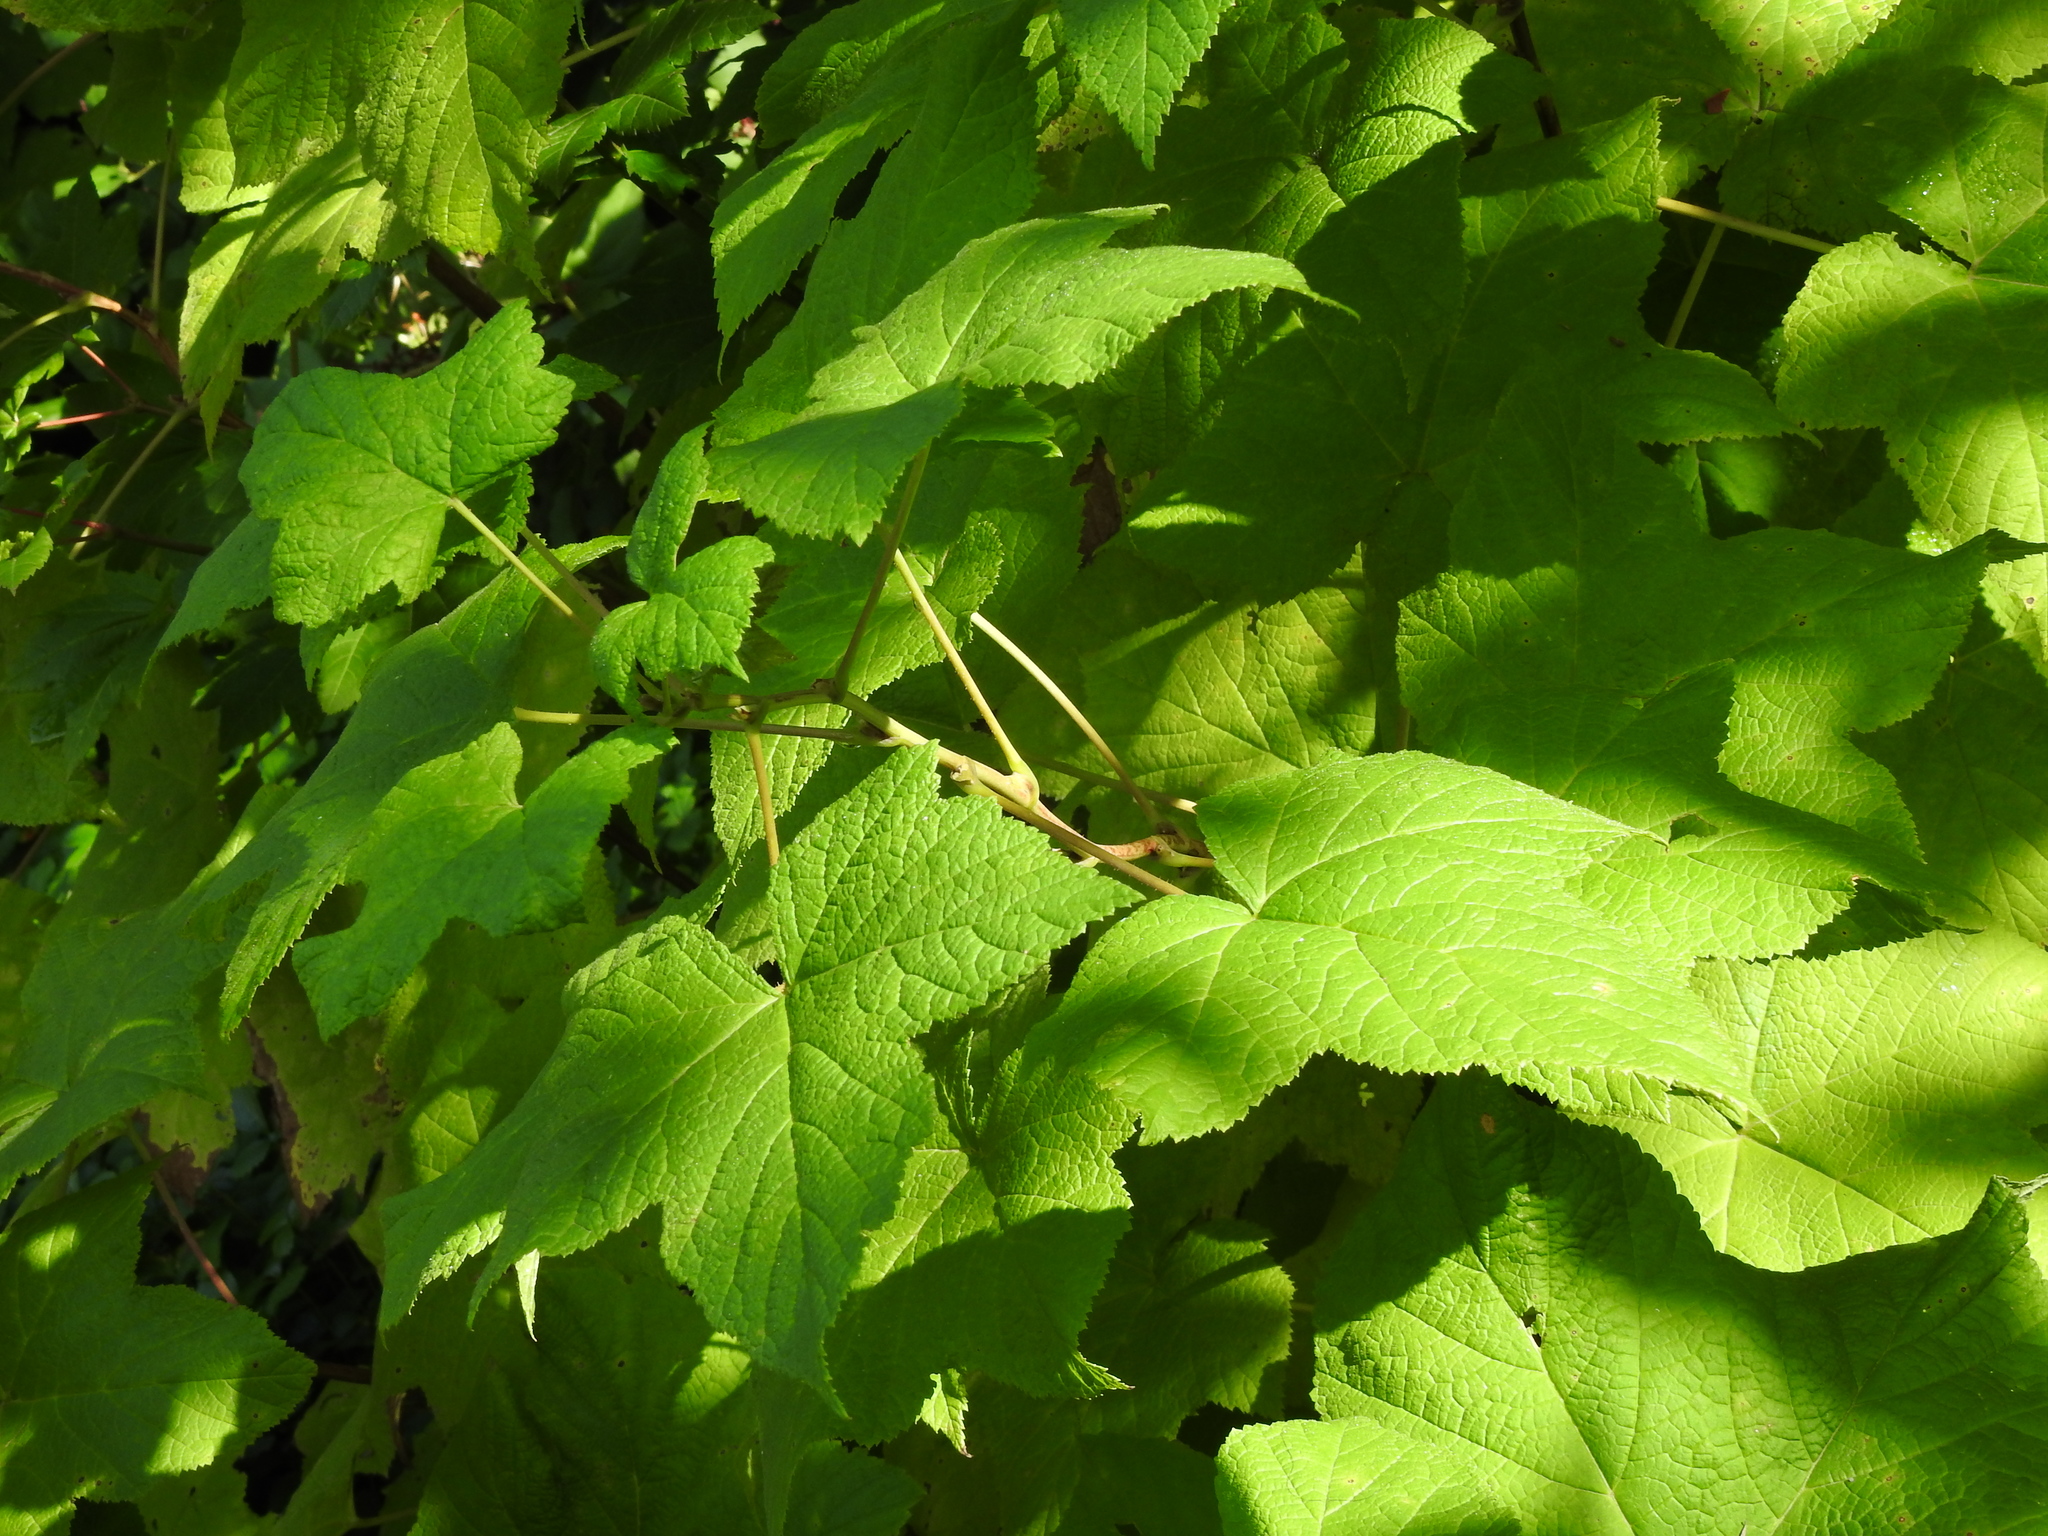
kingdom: Plantae
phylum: Tracheophyta
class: Magnoliopsida
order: Rosales
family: Rosaceae
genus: Rubus
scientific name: Rubus parviflorus
